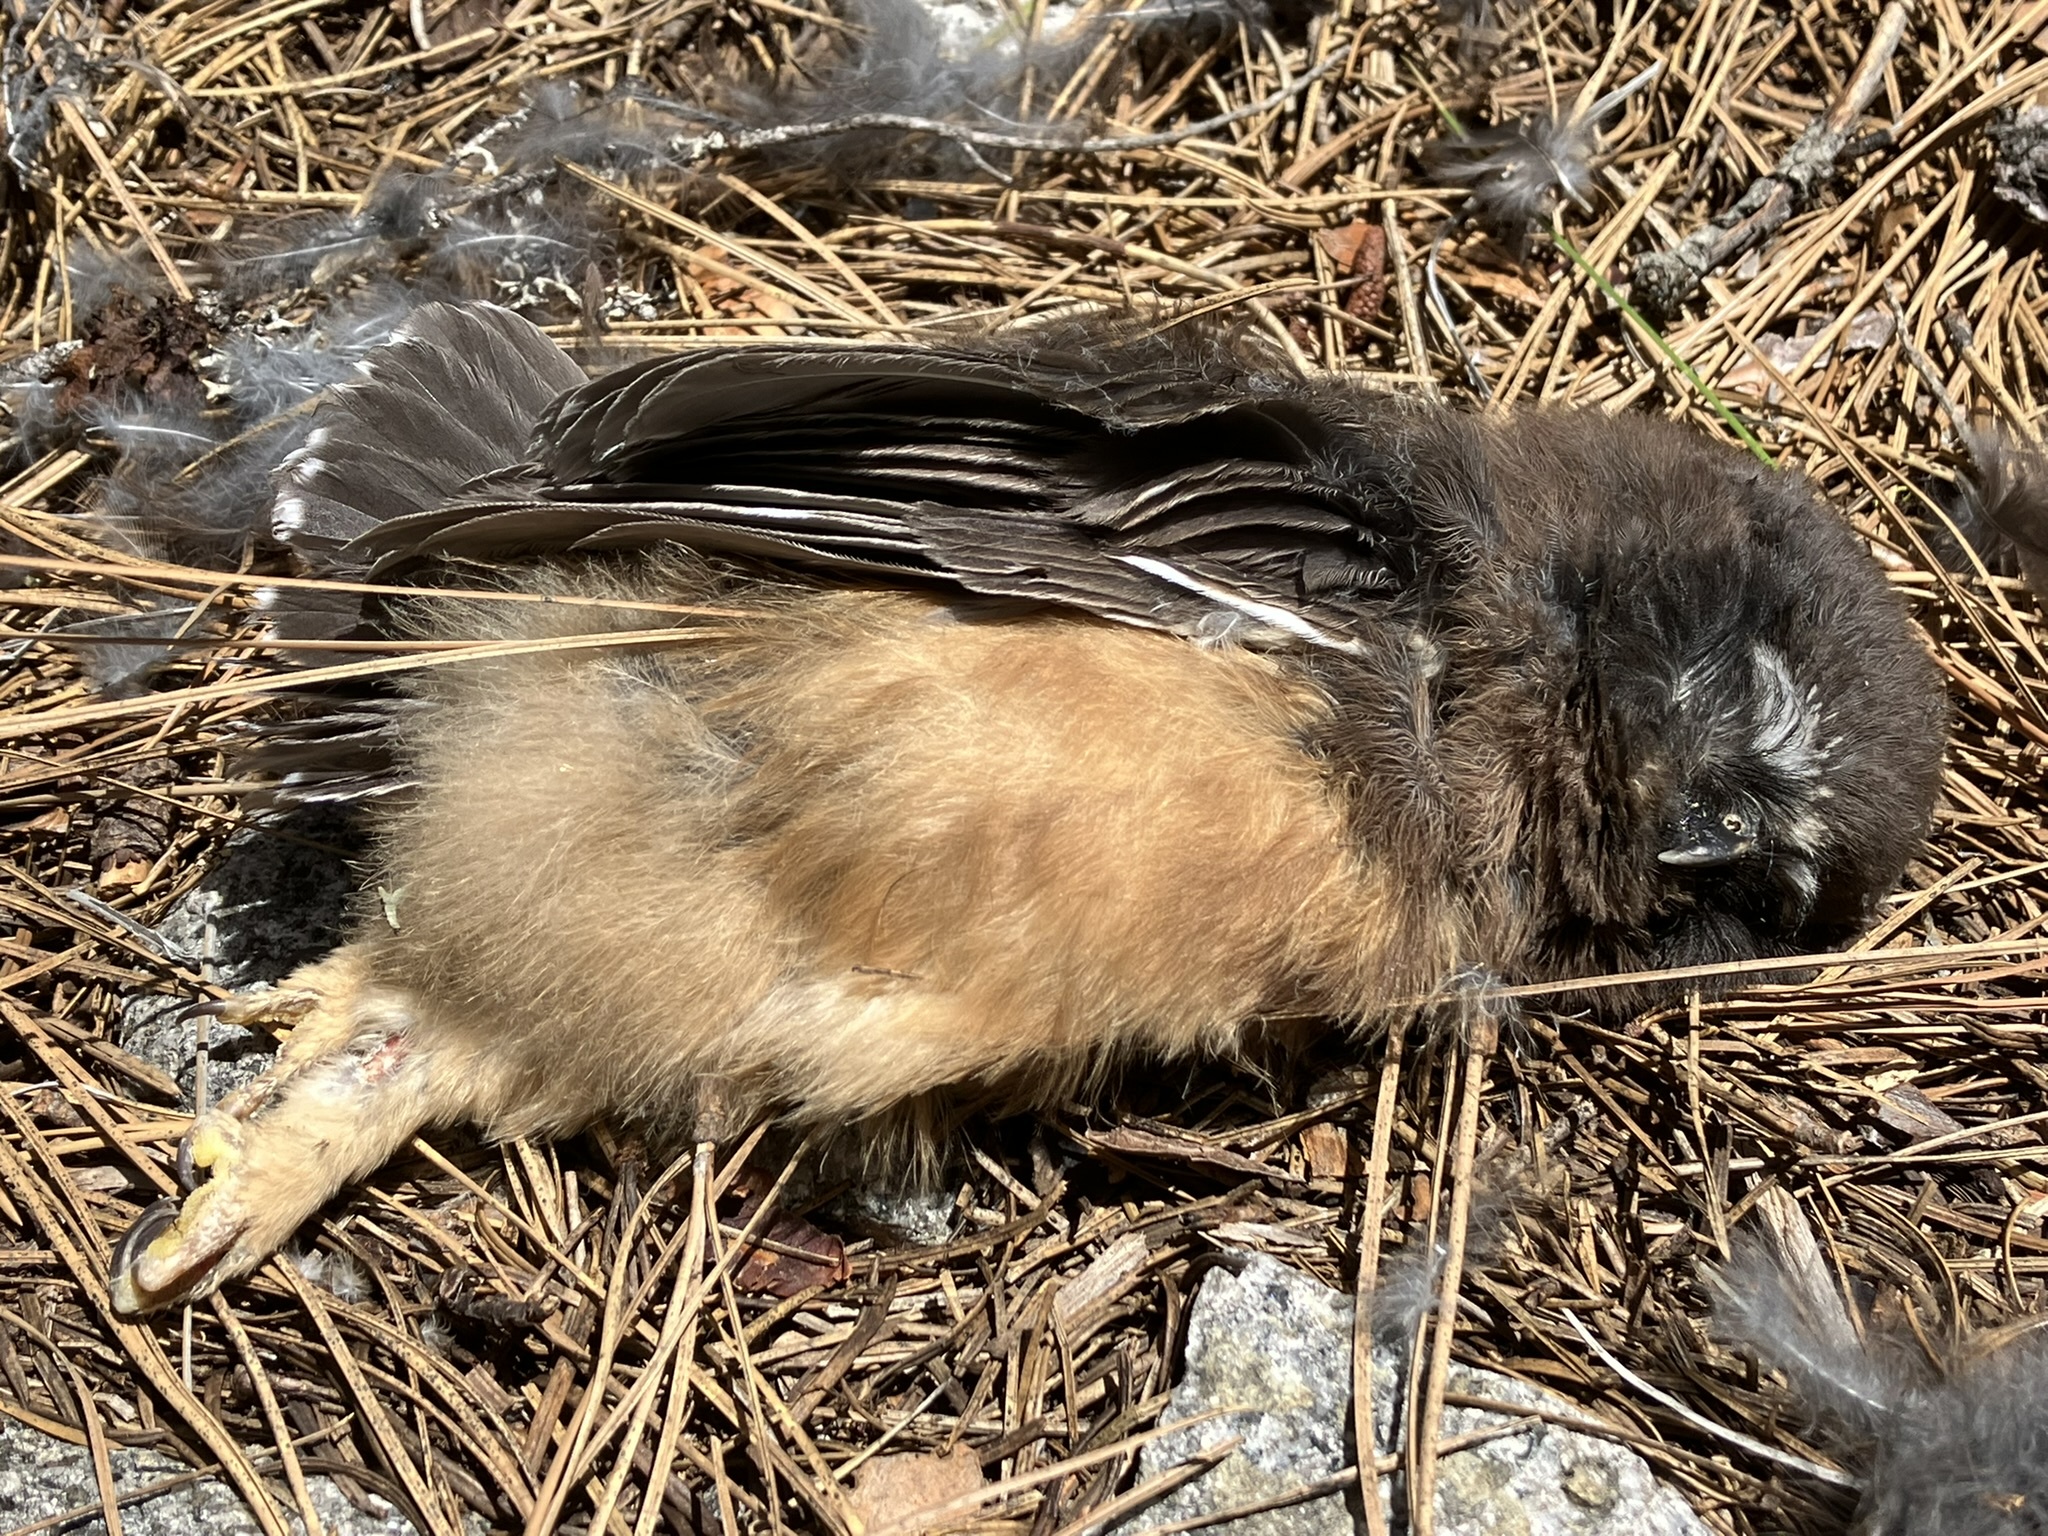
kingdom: Animalia
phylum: Chordata
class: Aves
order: Strigiformes
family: Strigidae
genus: Aegolius
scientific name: Aegolius acadicus
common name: Northern saw-whet owl
